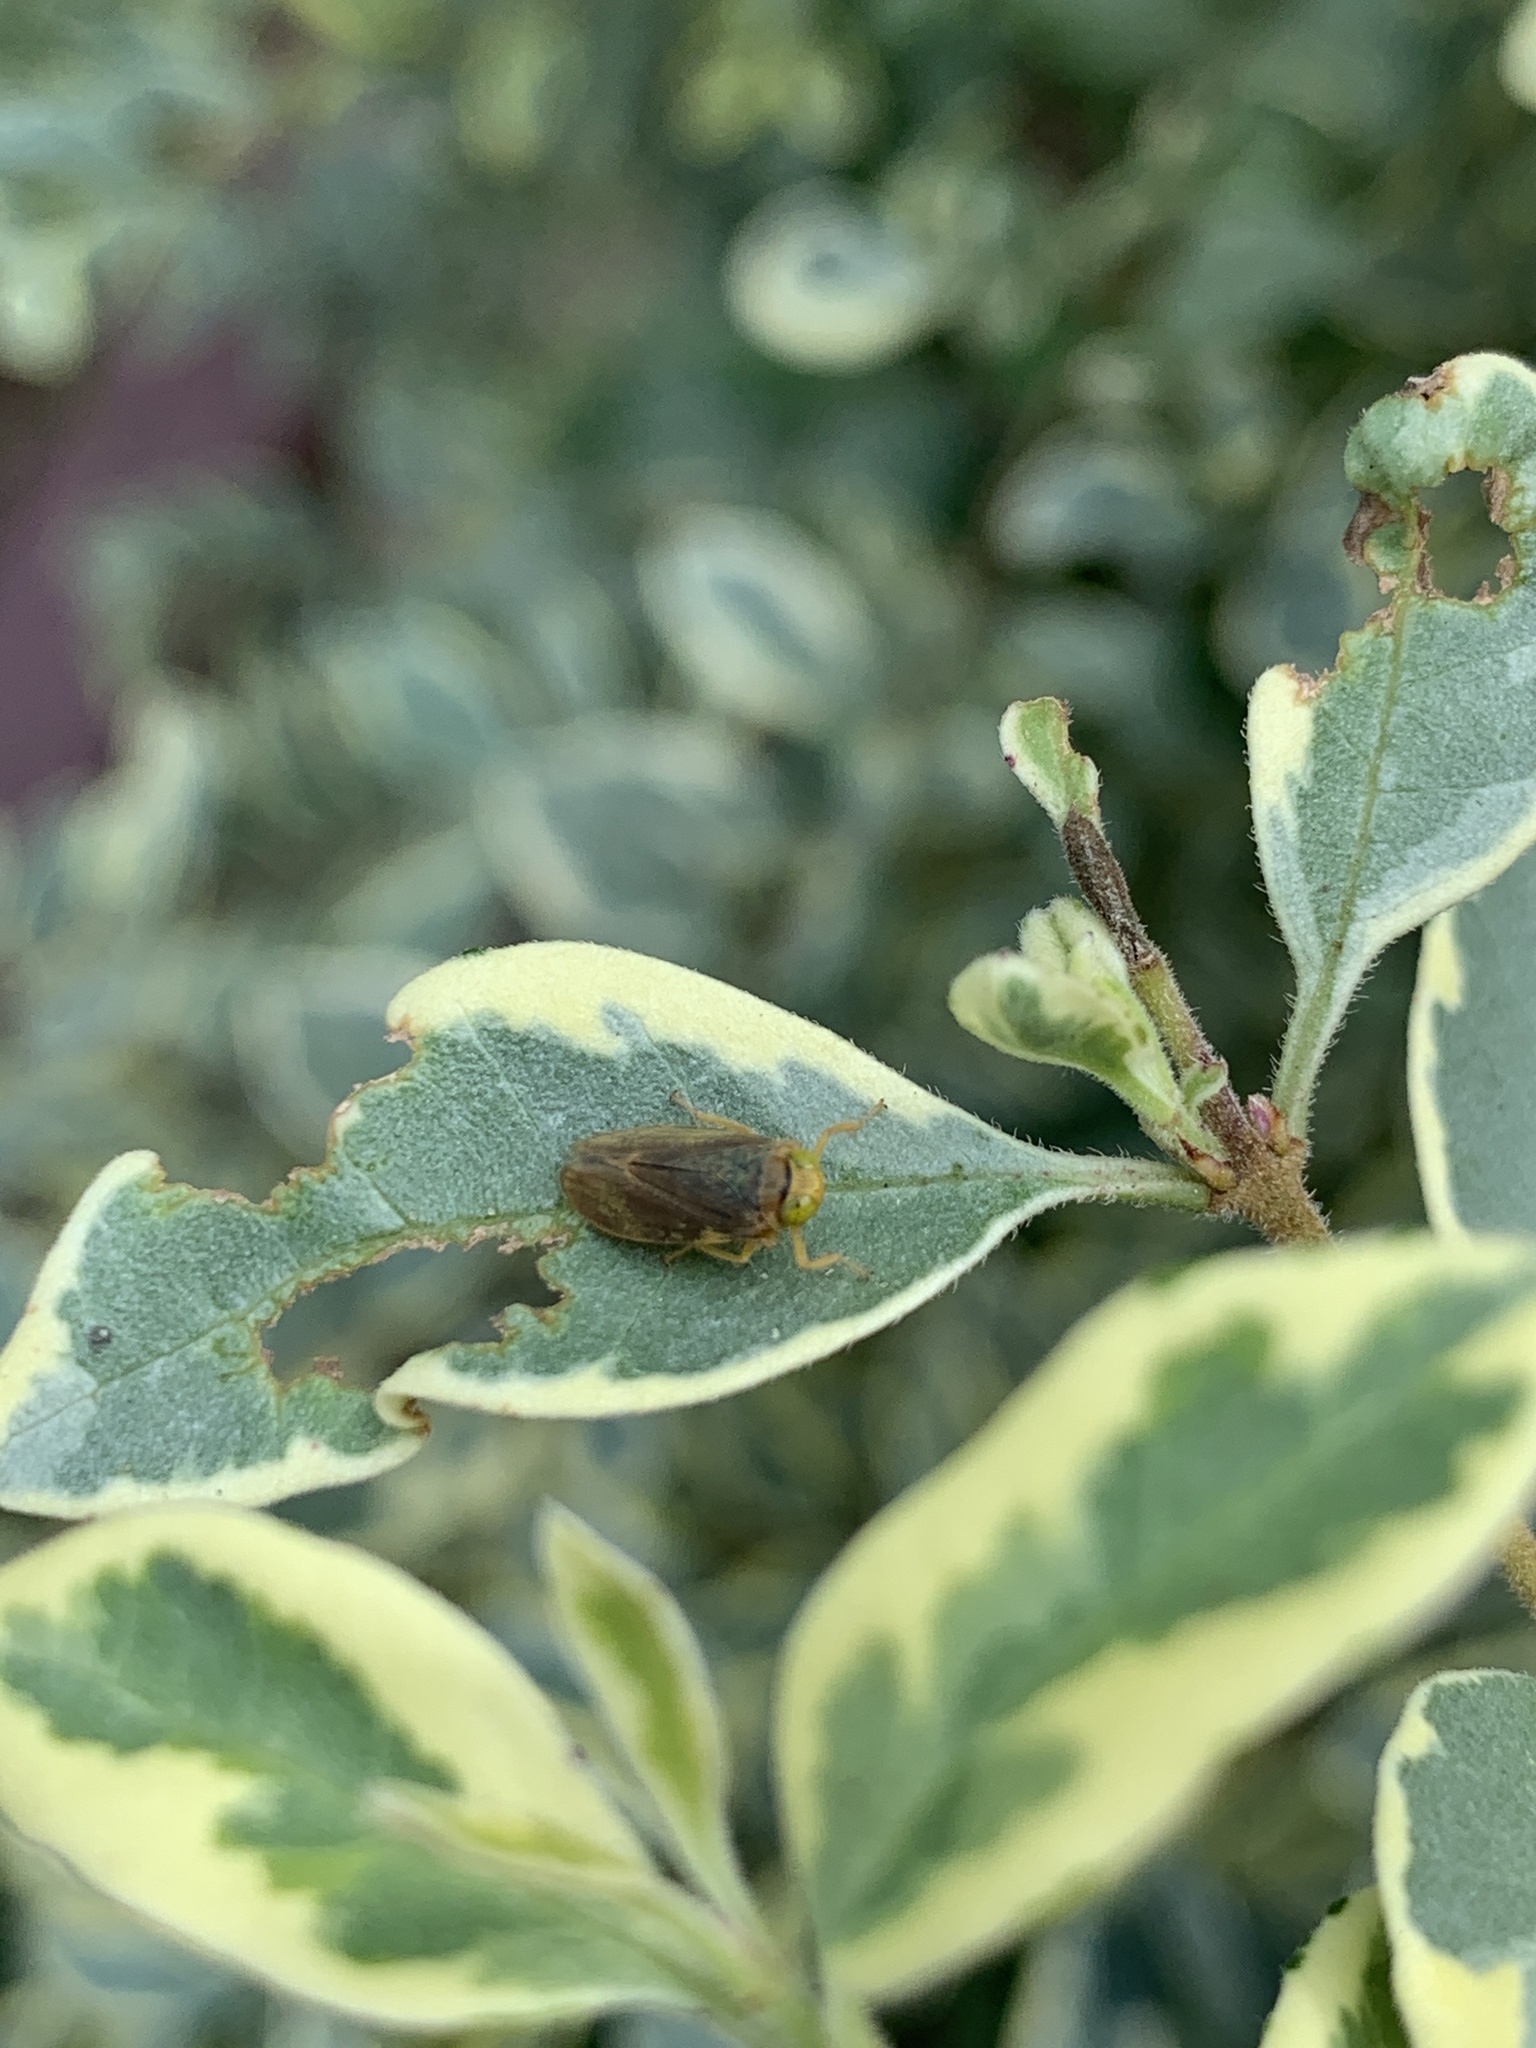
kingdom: Animalia
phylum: Arthropoda
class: Insecta
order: Hemiptera
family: Cicadellidae
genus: Jikradia
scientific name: Jikradia olitoria
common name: Coppery leafhopper
